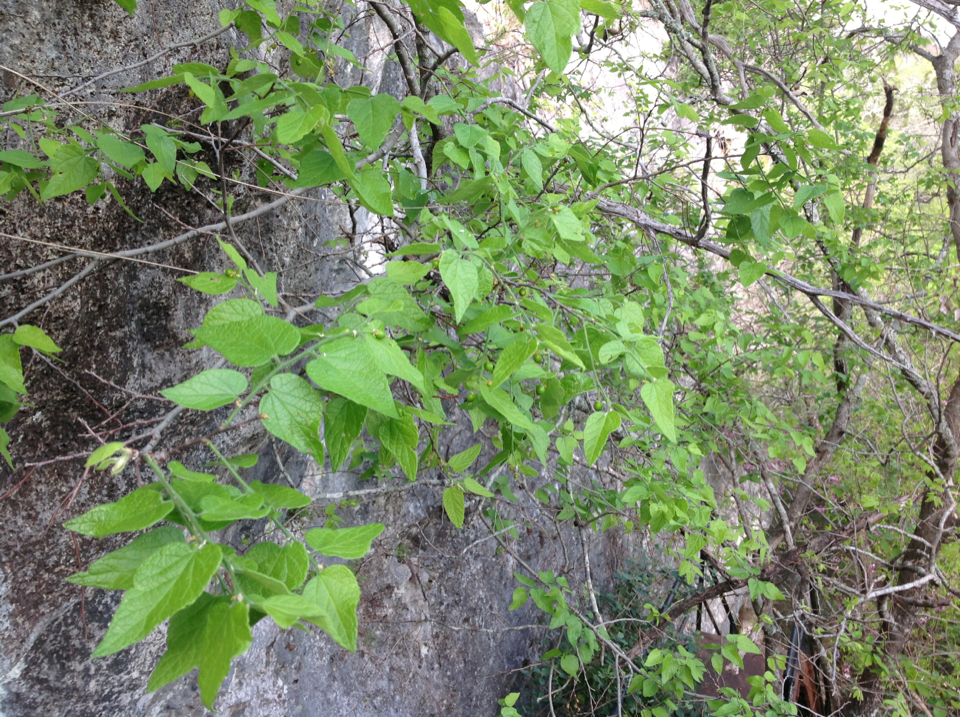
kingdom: Plantae
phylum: Tracheophyta
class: Magnoliopsida
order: Rosales
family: Cannabaceae
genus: Celtis
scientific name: Celtis laevigata
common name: Sugarberry
